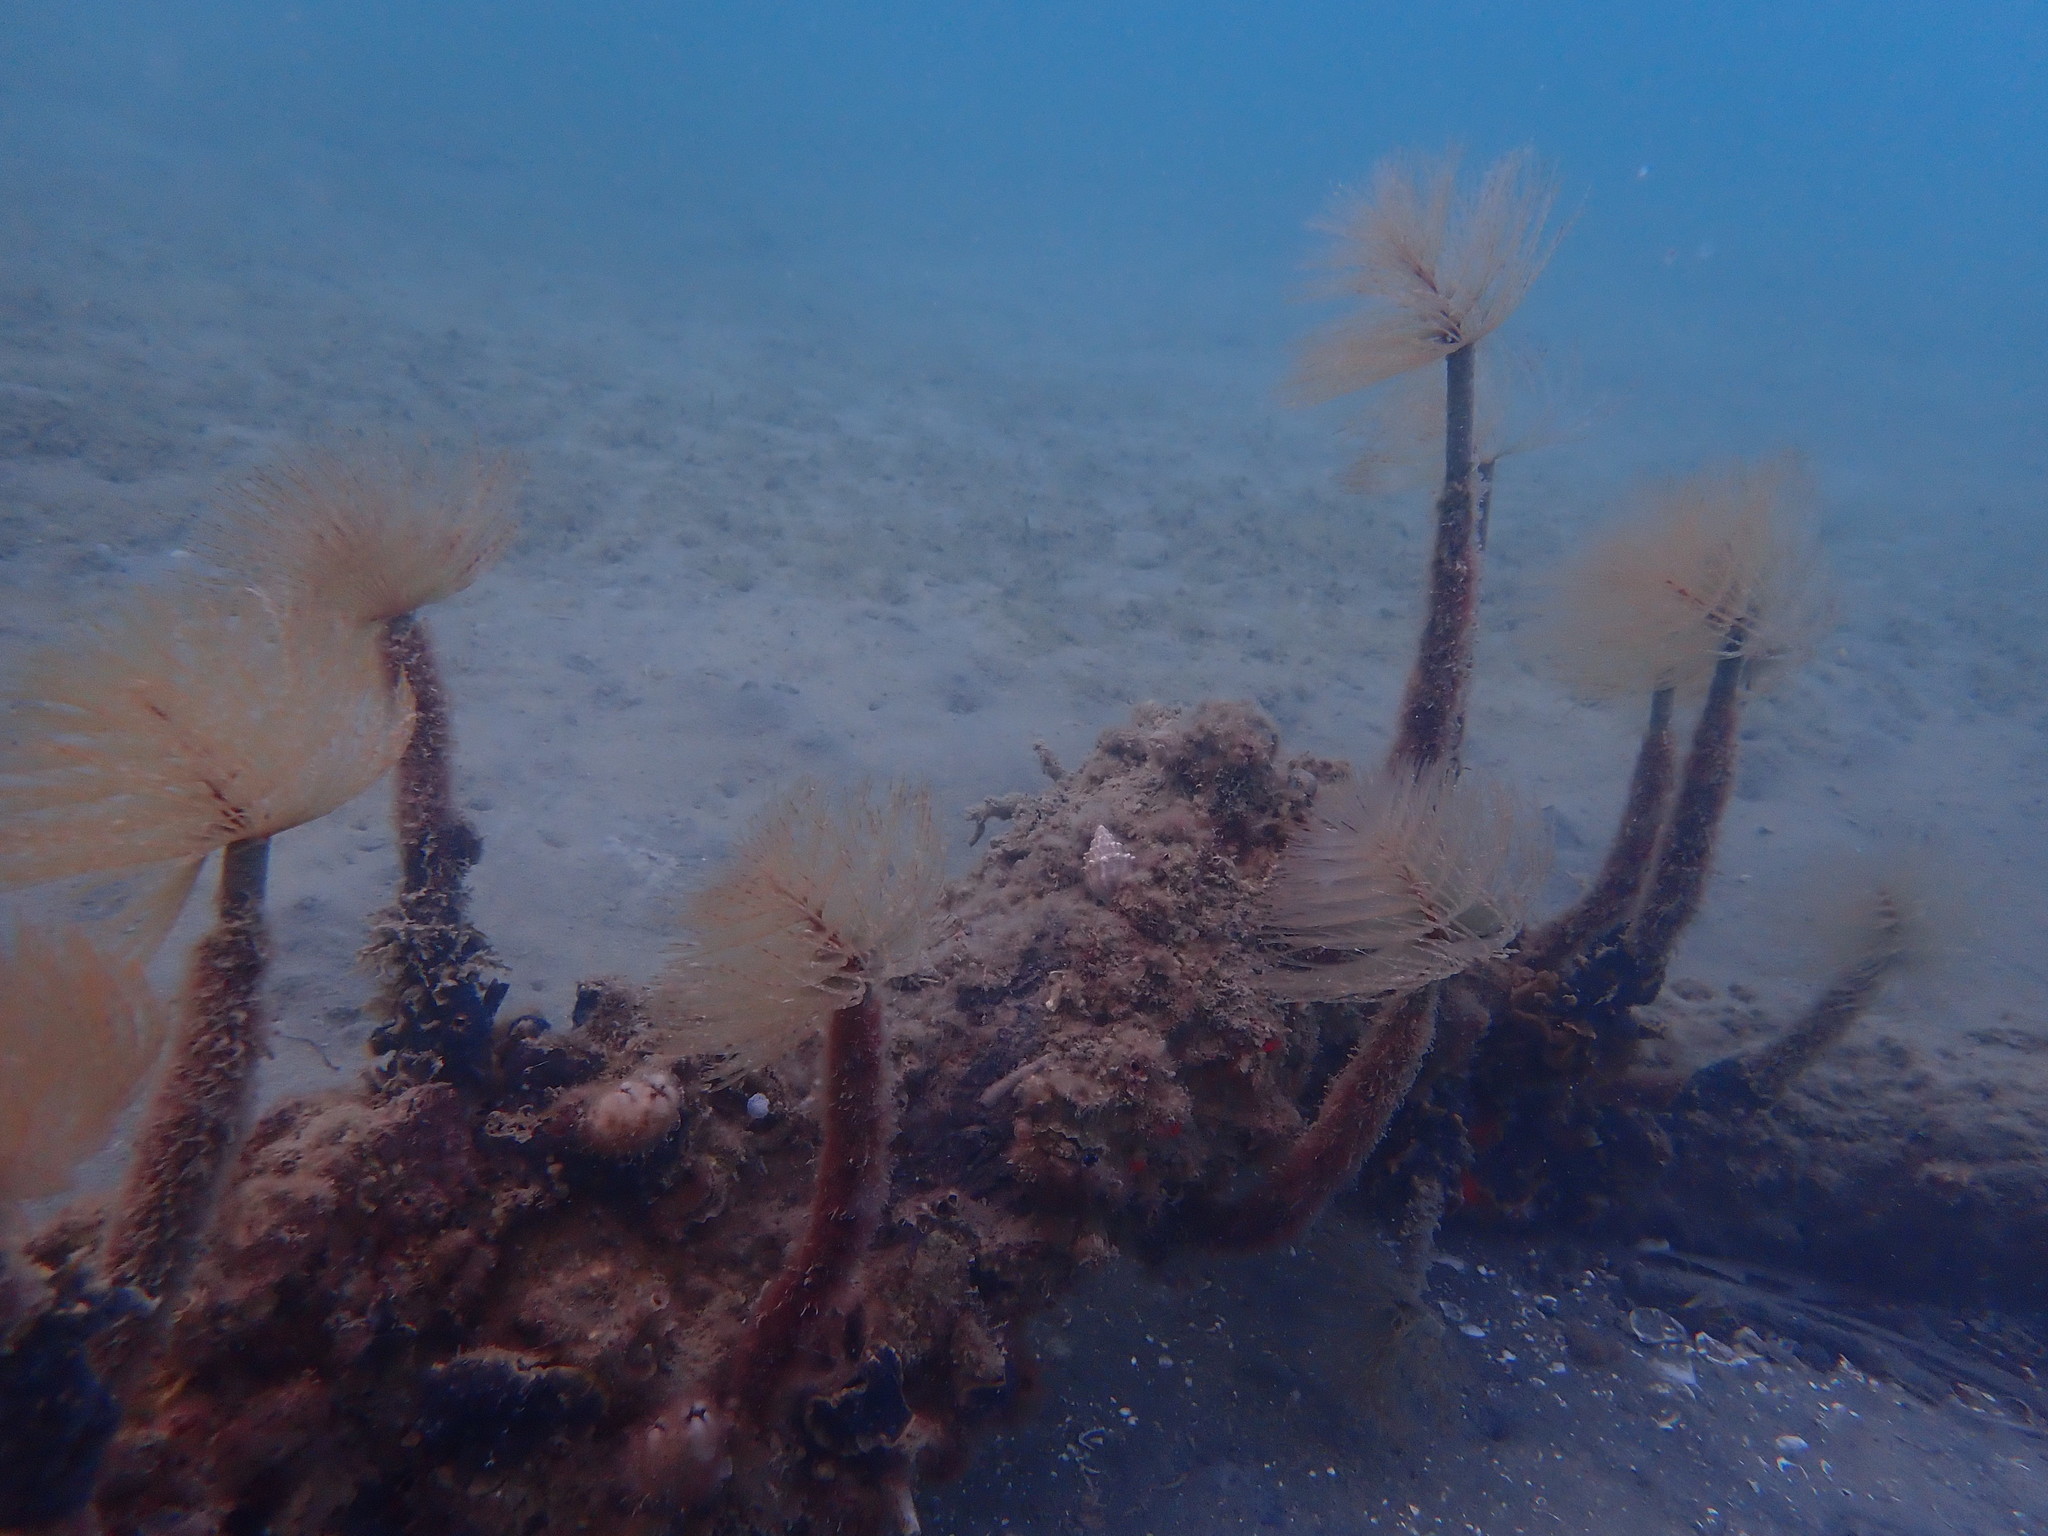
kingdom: Animalia
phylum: Annelida
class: Polychaeta
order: Sabellida
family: Sabellidae
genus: Sabella
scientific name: Sabella spallanzanii
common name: Feather duster worm
